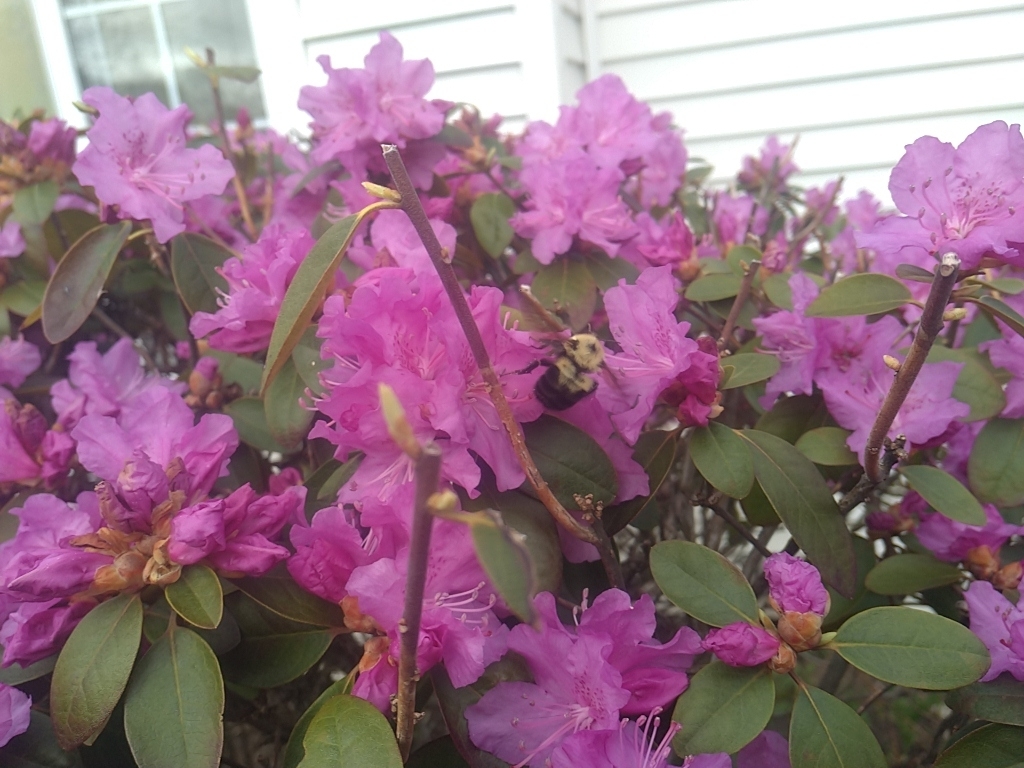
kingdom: Animalia
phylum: Arthropoda
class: Insecta
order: Hymenoptera
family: Apidae
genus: Bombus
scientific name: Bombus bimaculatus
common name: Two-spotted bumble bee
